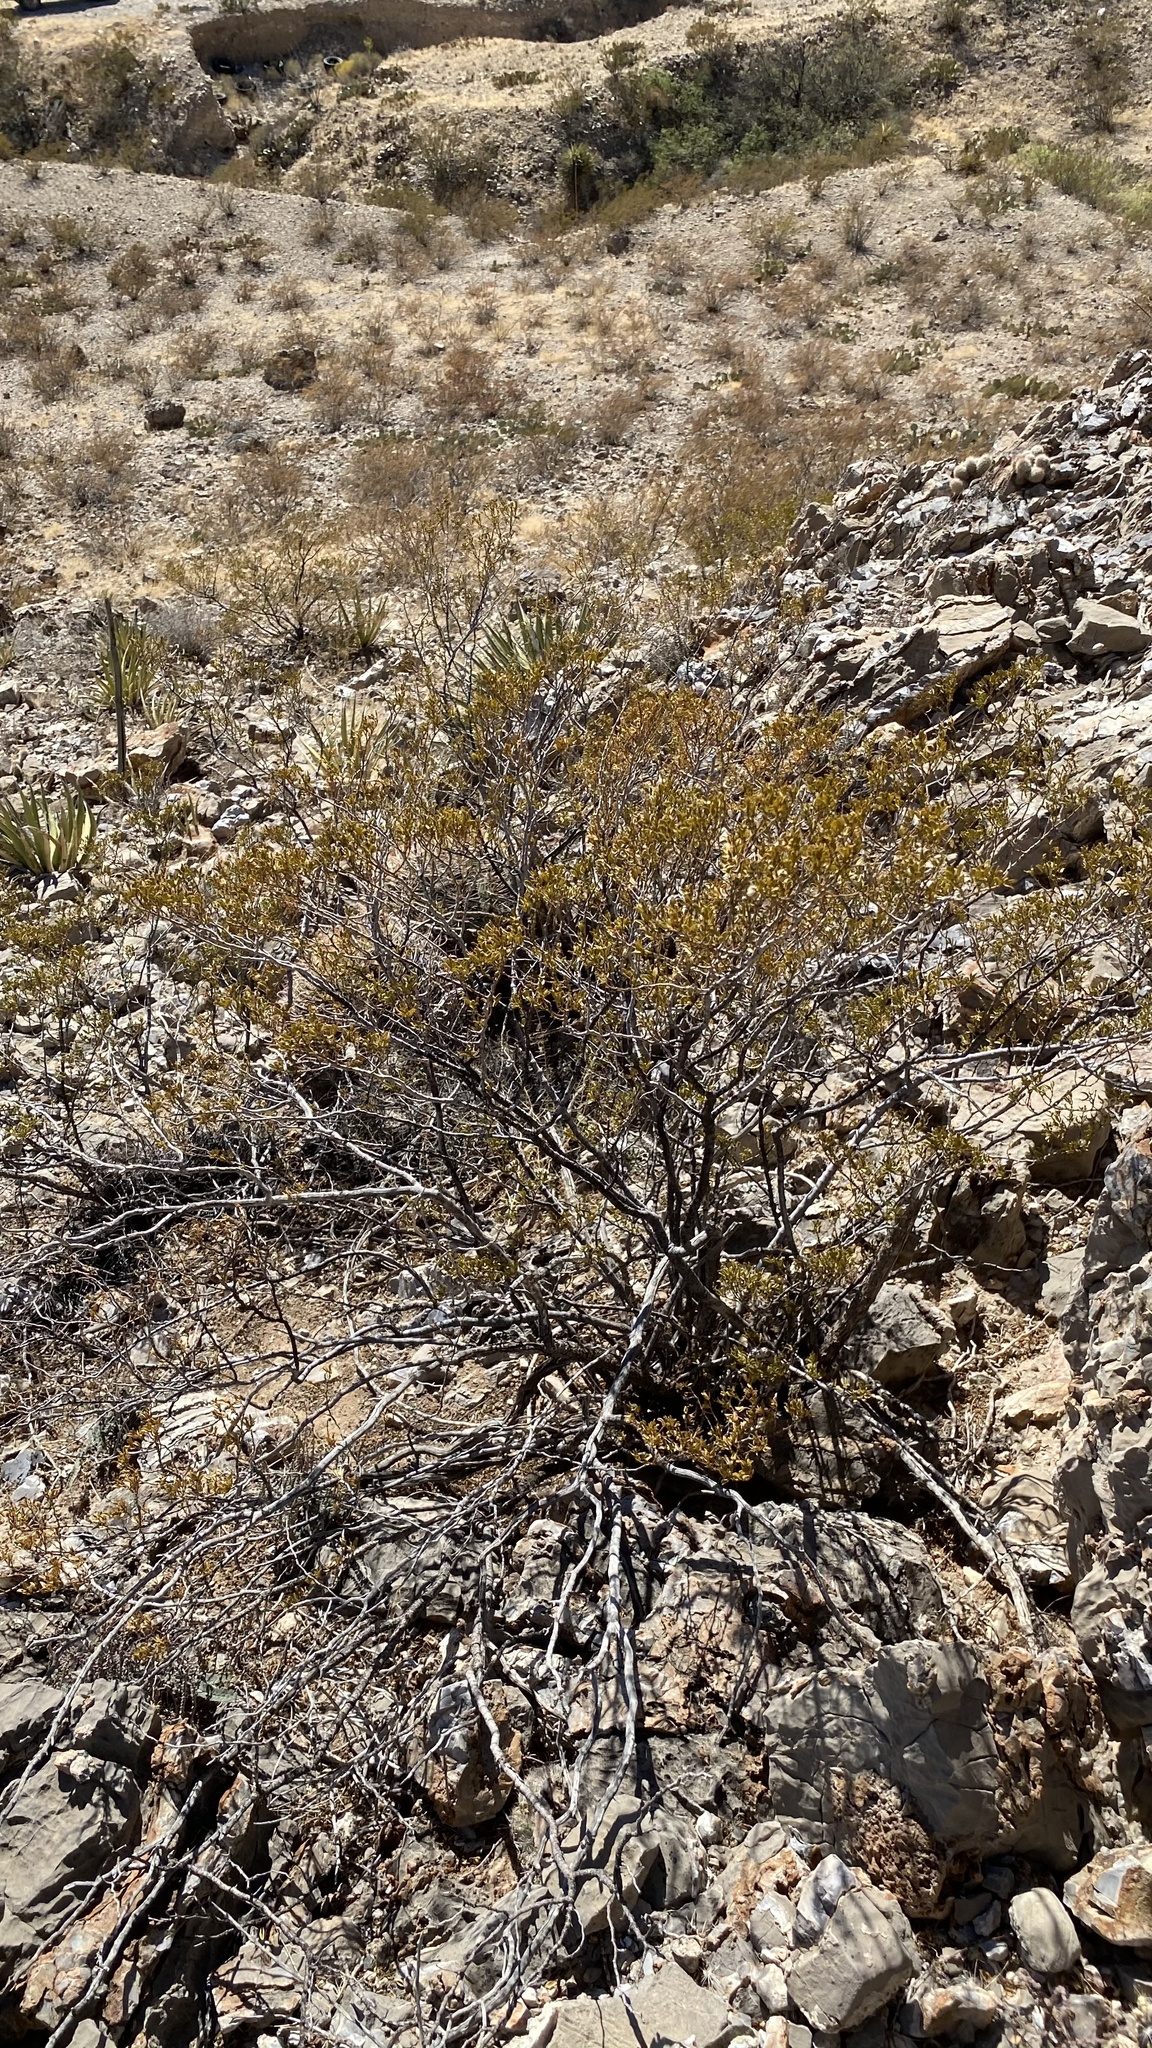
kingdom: Plantae
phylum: Tracheophyta
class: Magnoliopsida
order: Zygophyllales
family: Zygophyllaceae
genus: Larrea
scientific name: Larrea tridentata
